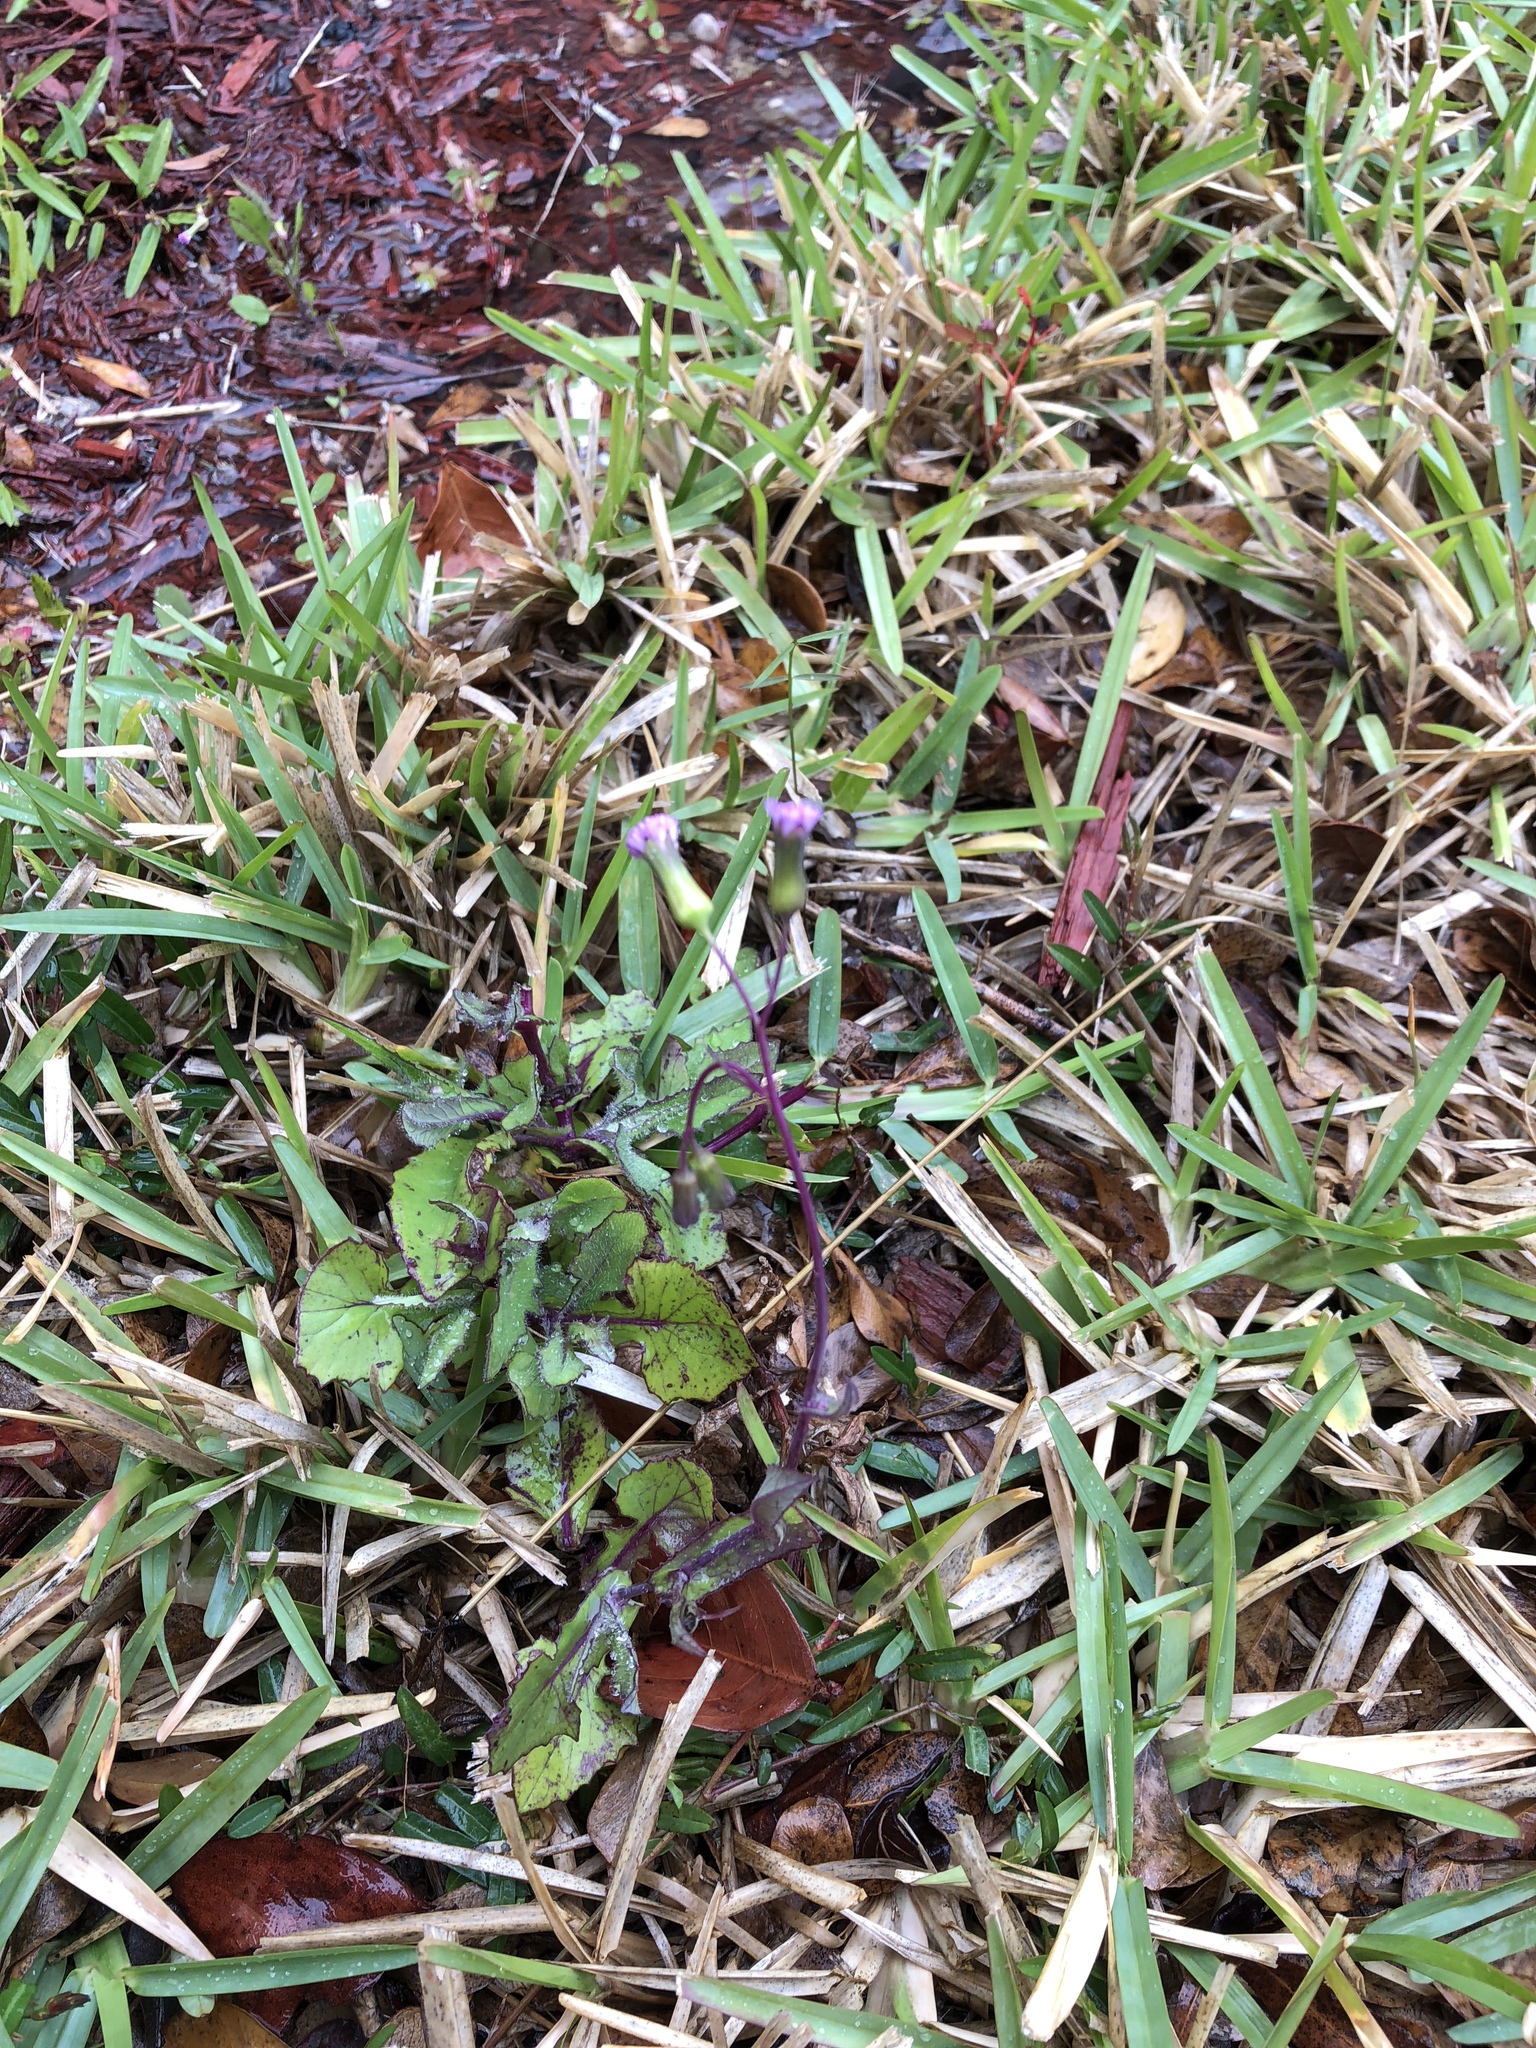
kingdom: Plantae
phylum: Tracheophyta
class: Magnoliopsida
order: Asterales
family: Asteraceae
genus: Emilia
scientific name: Emilia sonchifolia
